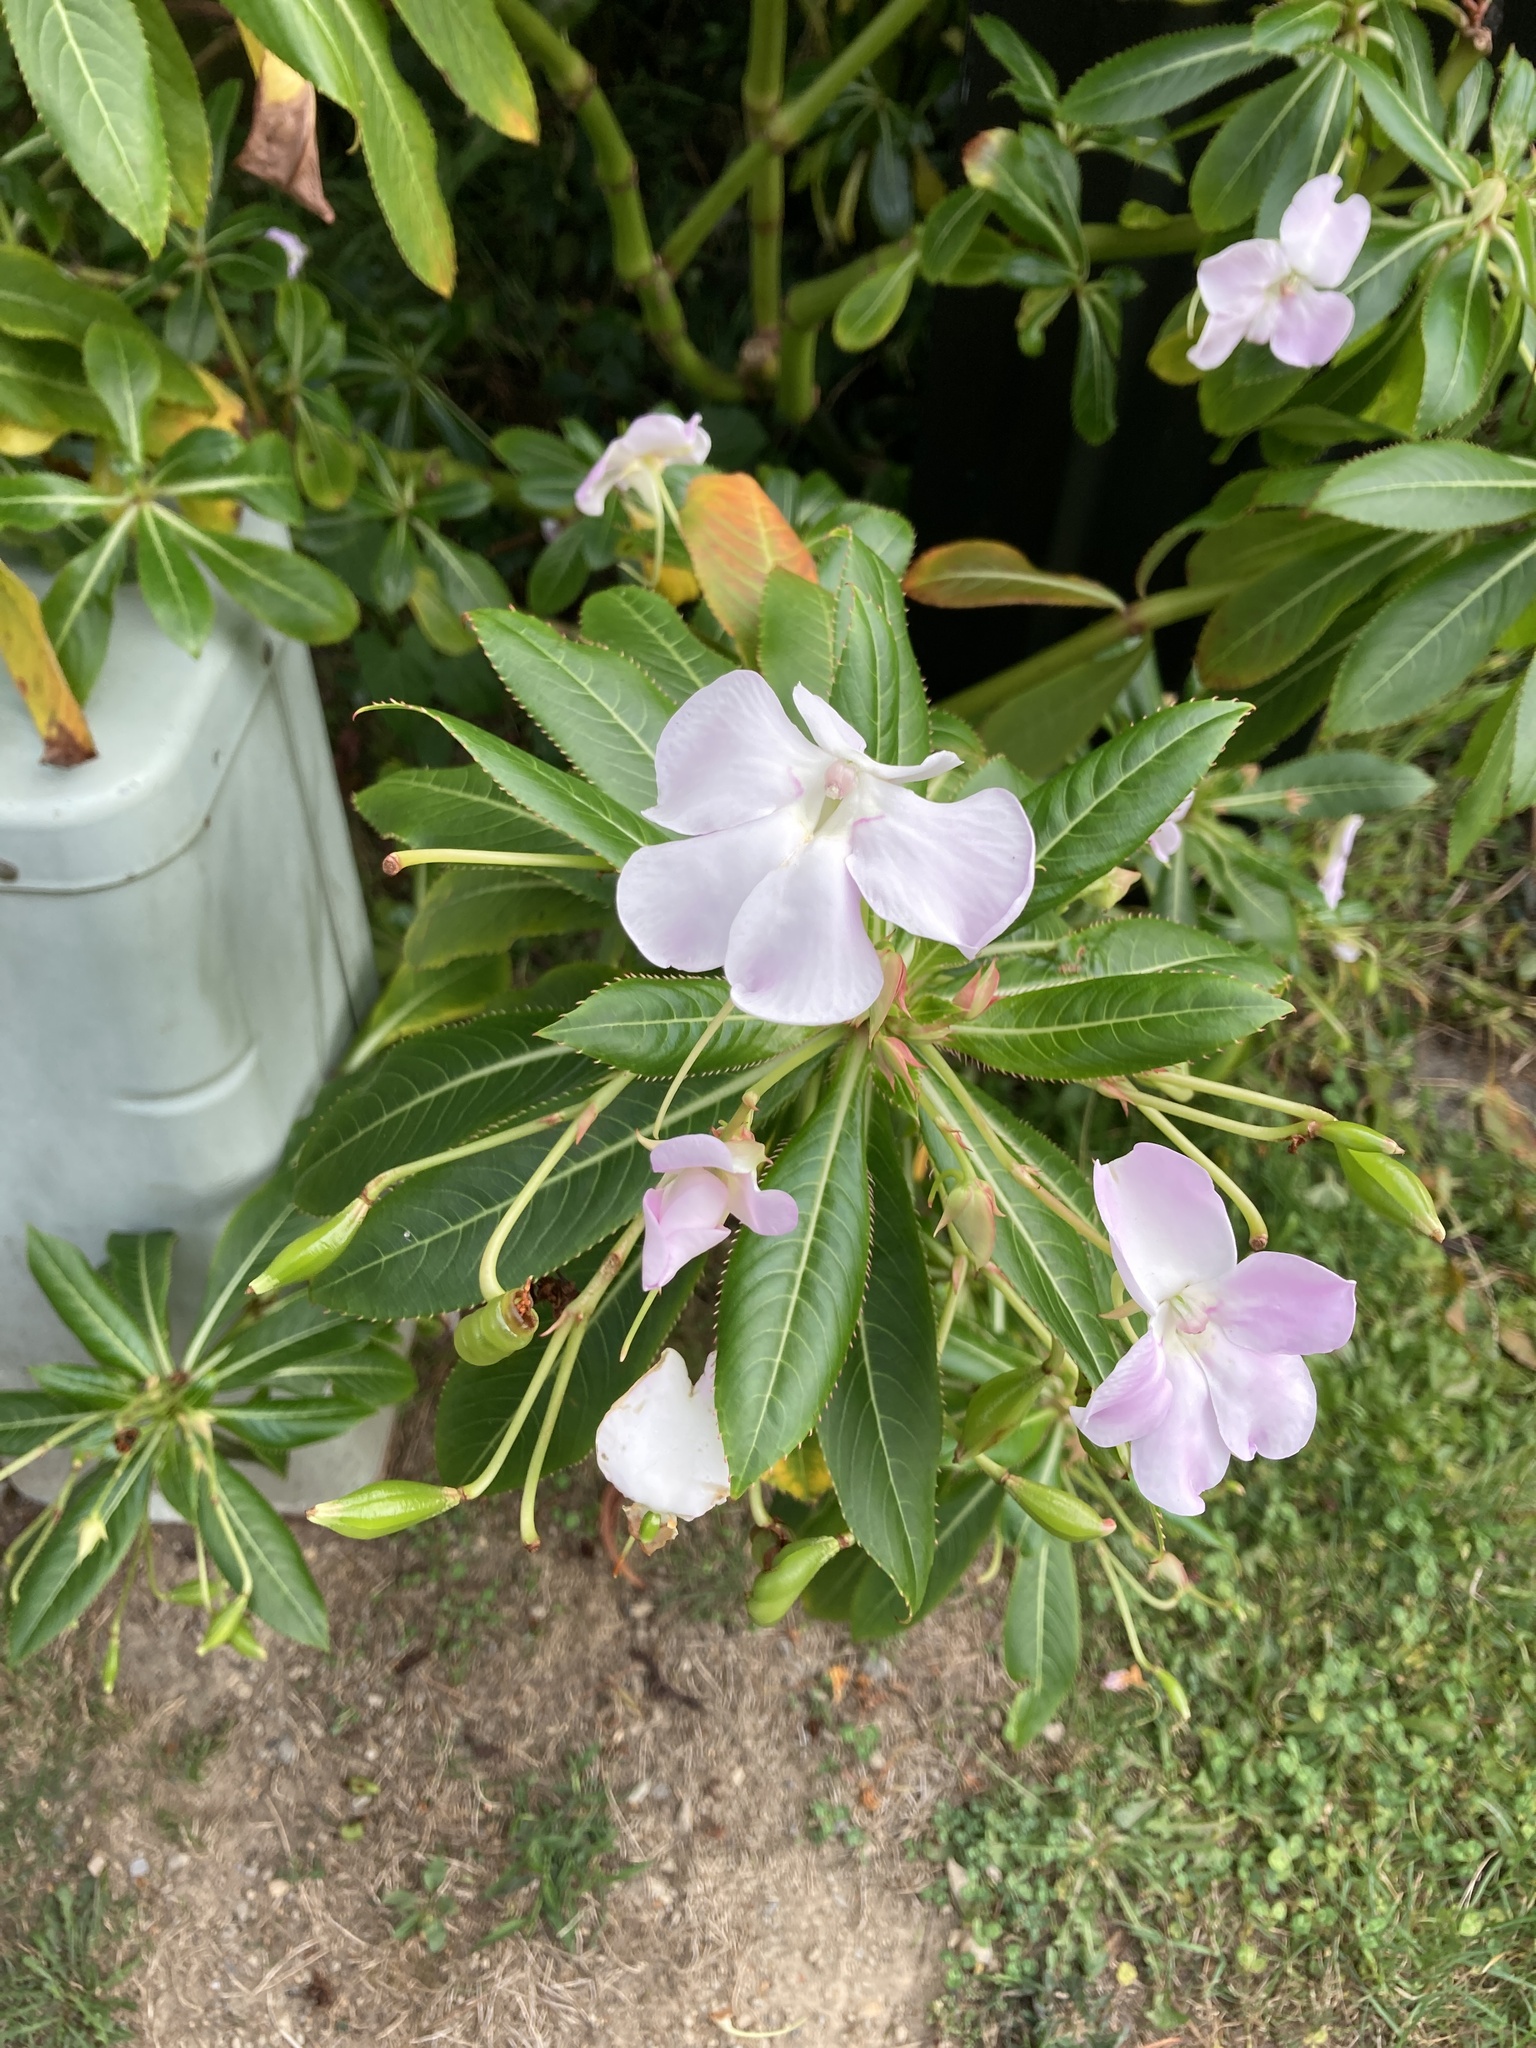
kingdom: Plantae
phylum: Tracheophyta
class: Magnoliopsida
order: Ericales
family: Balsaminaceae
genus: Impatiens
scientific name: Impatiens sodenii
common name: Oliver's touch-me-not
